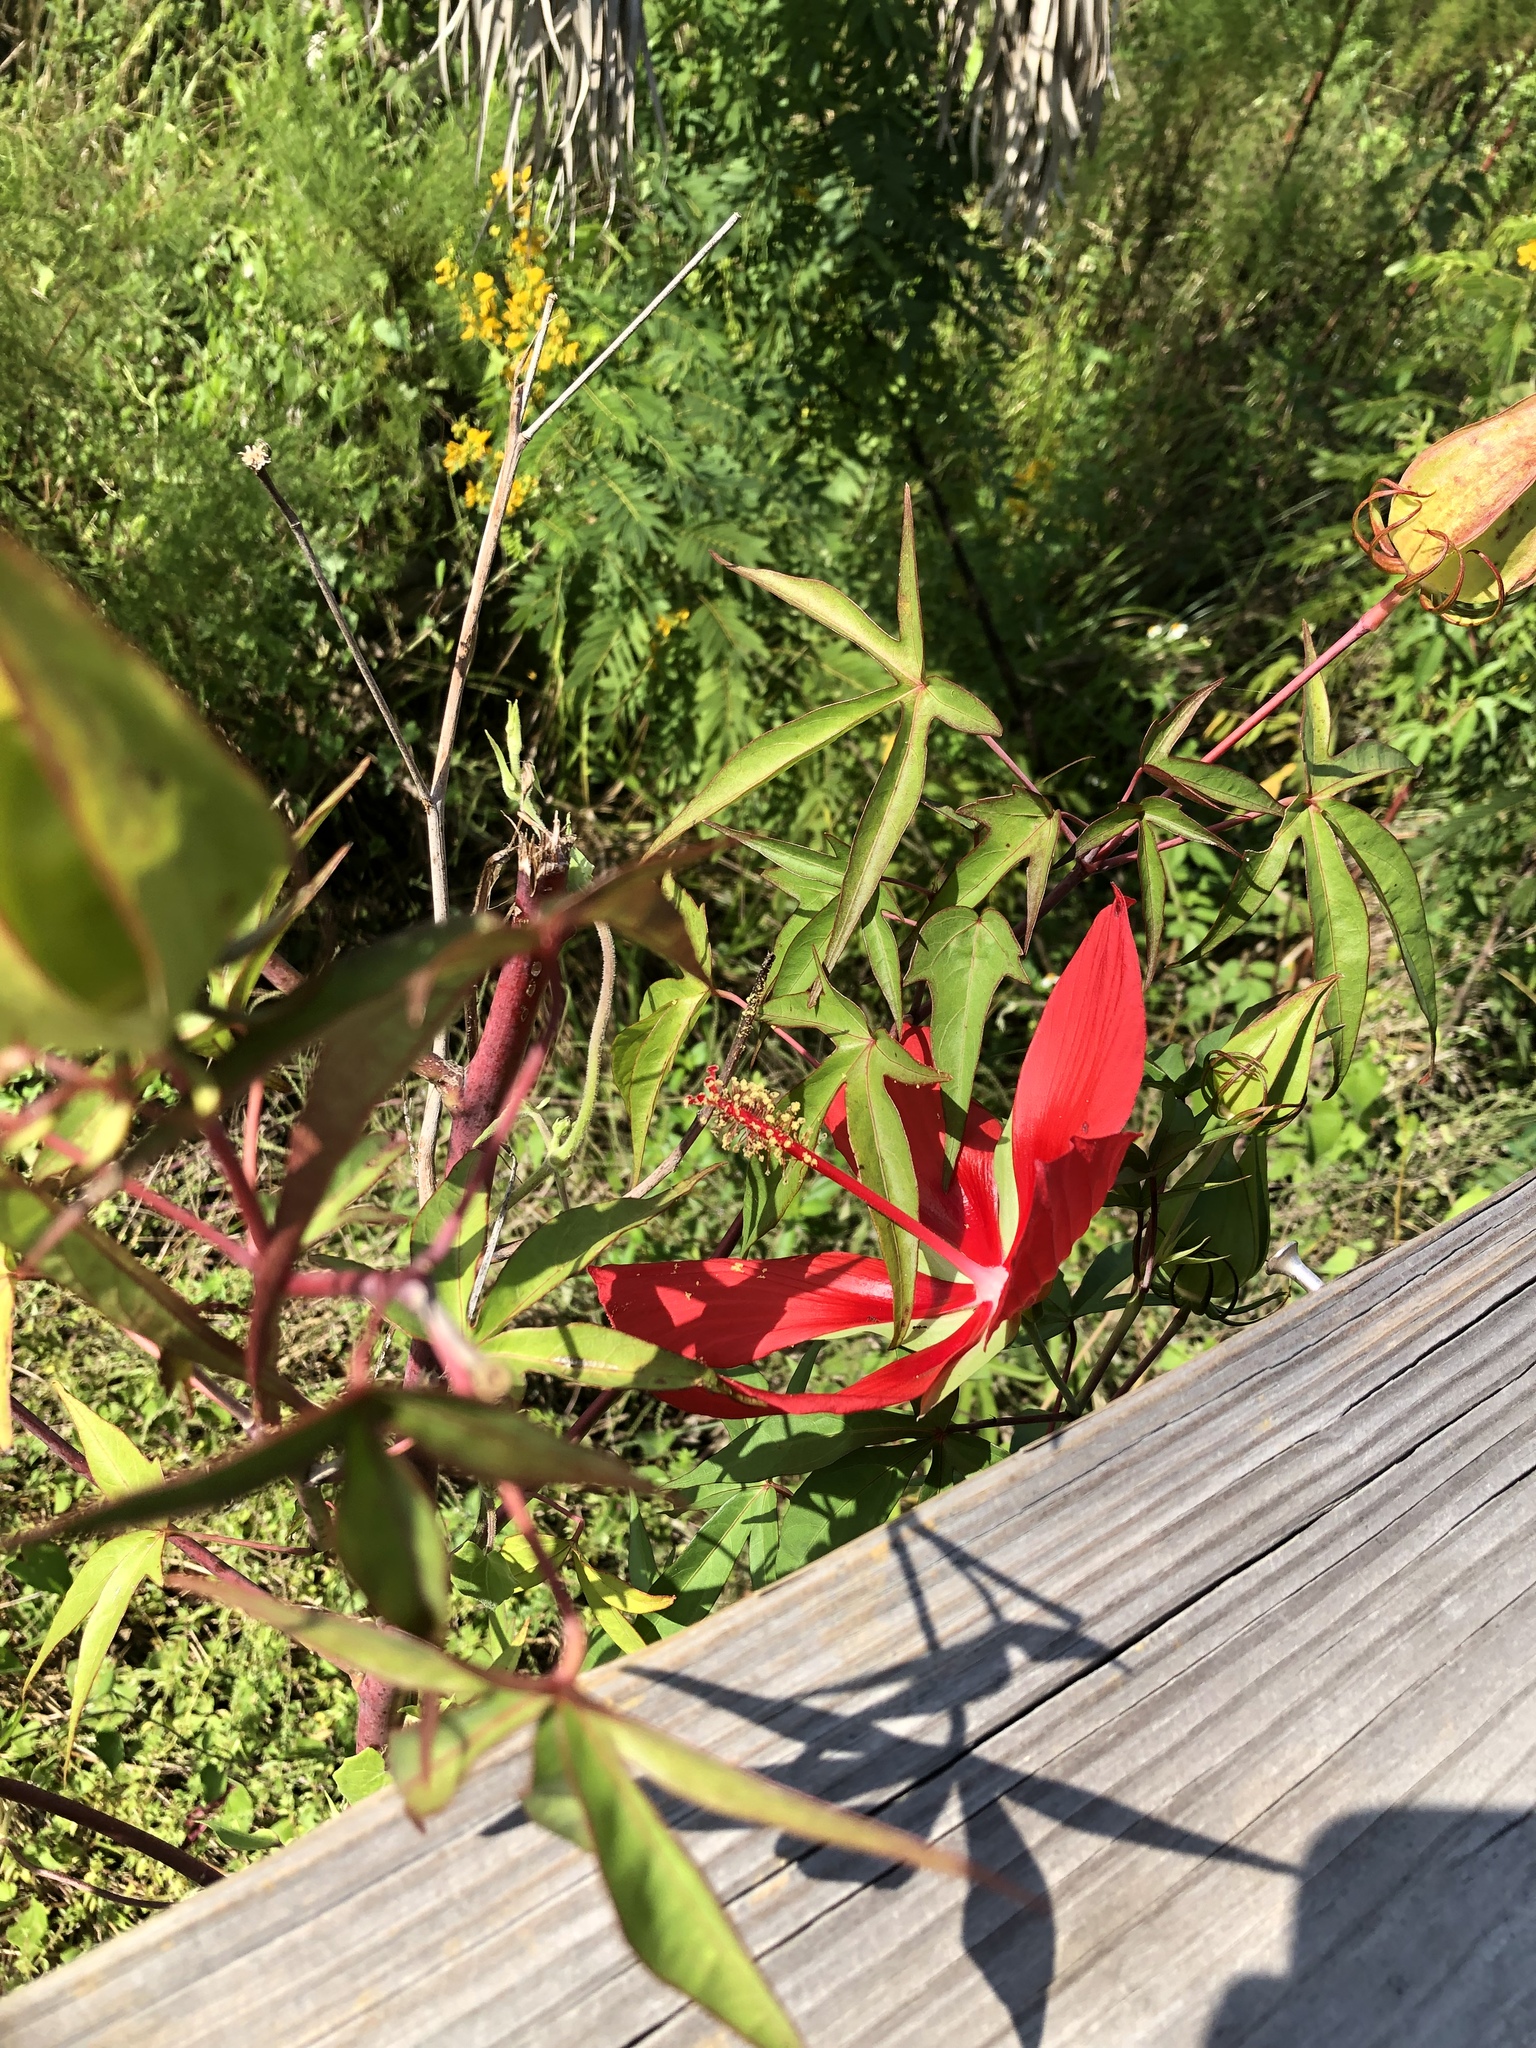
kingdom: Plantae
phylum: Tracheophyta
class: Magnoliopsida
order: Malvales
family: Malvaceae
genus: Hibiscus
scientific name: Hibiscus coccineus
